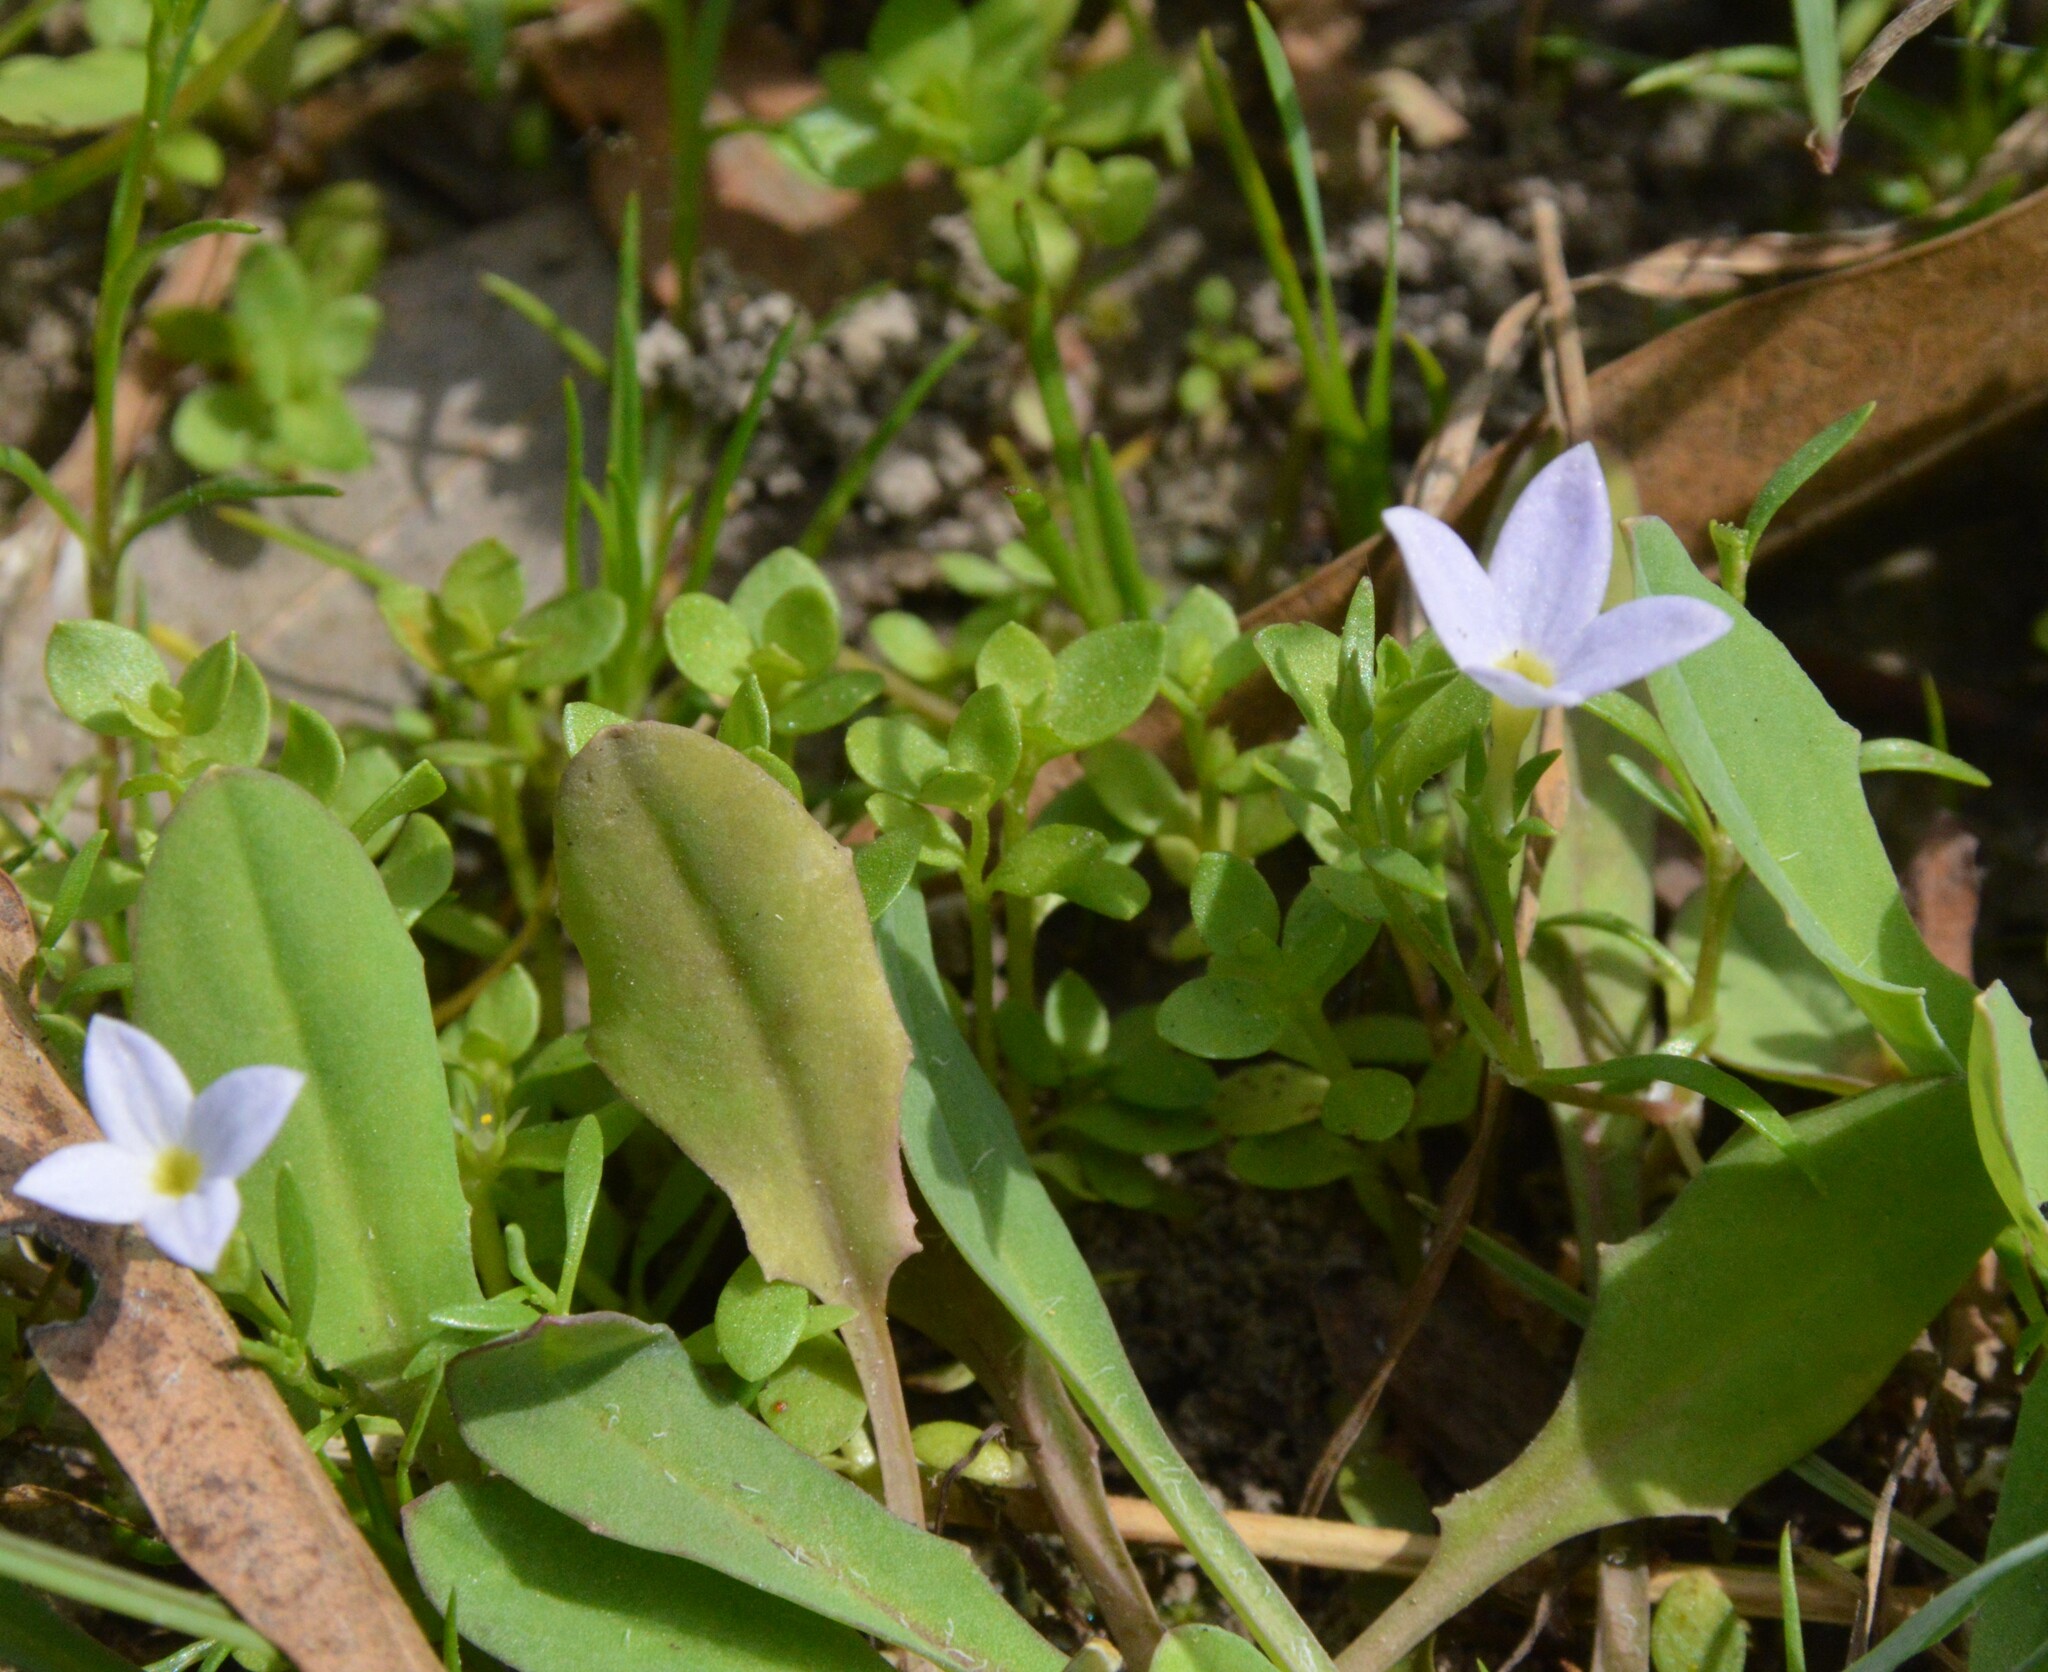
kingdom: Plantae
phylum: Tracheophyta
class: Magnoliopsida
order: Gentianales
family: Rubiaceae
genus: Houstonia
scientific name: Houstonia rosea
